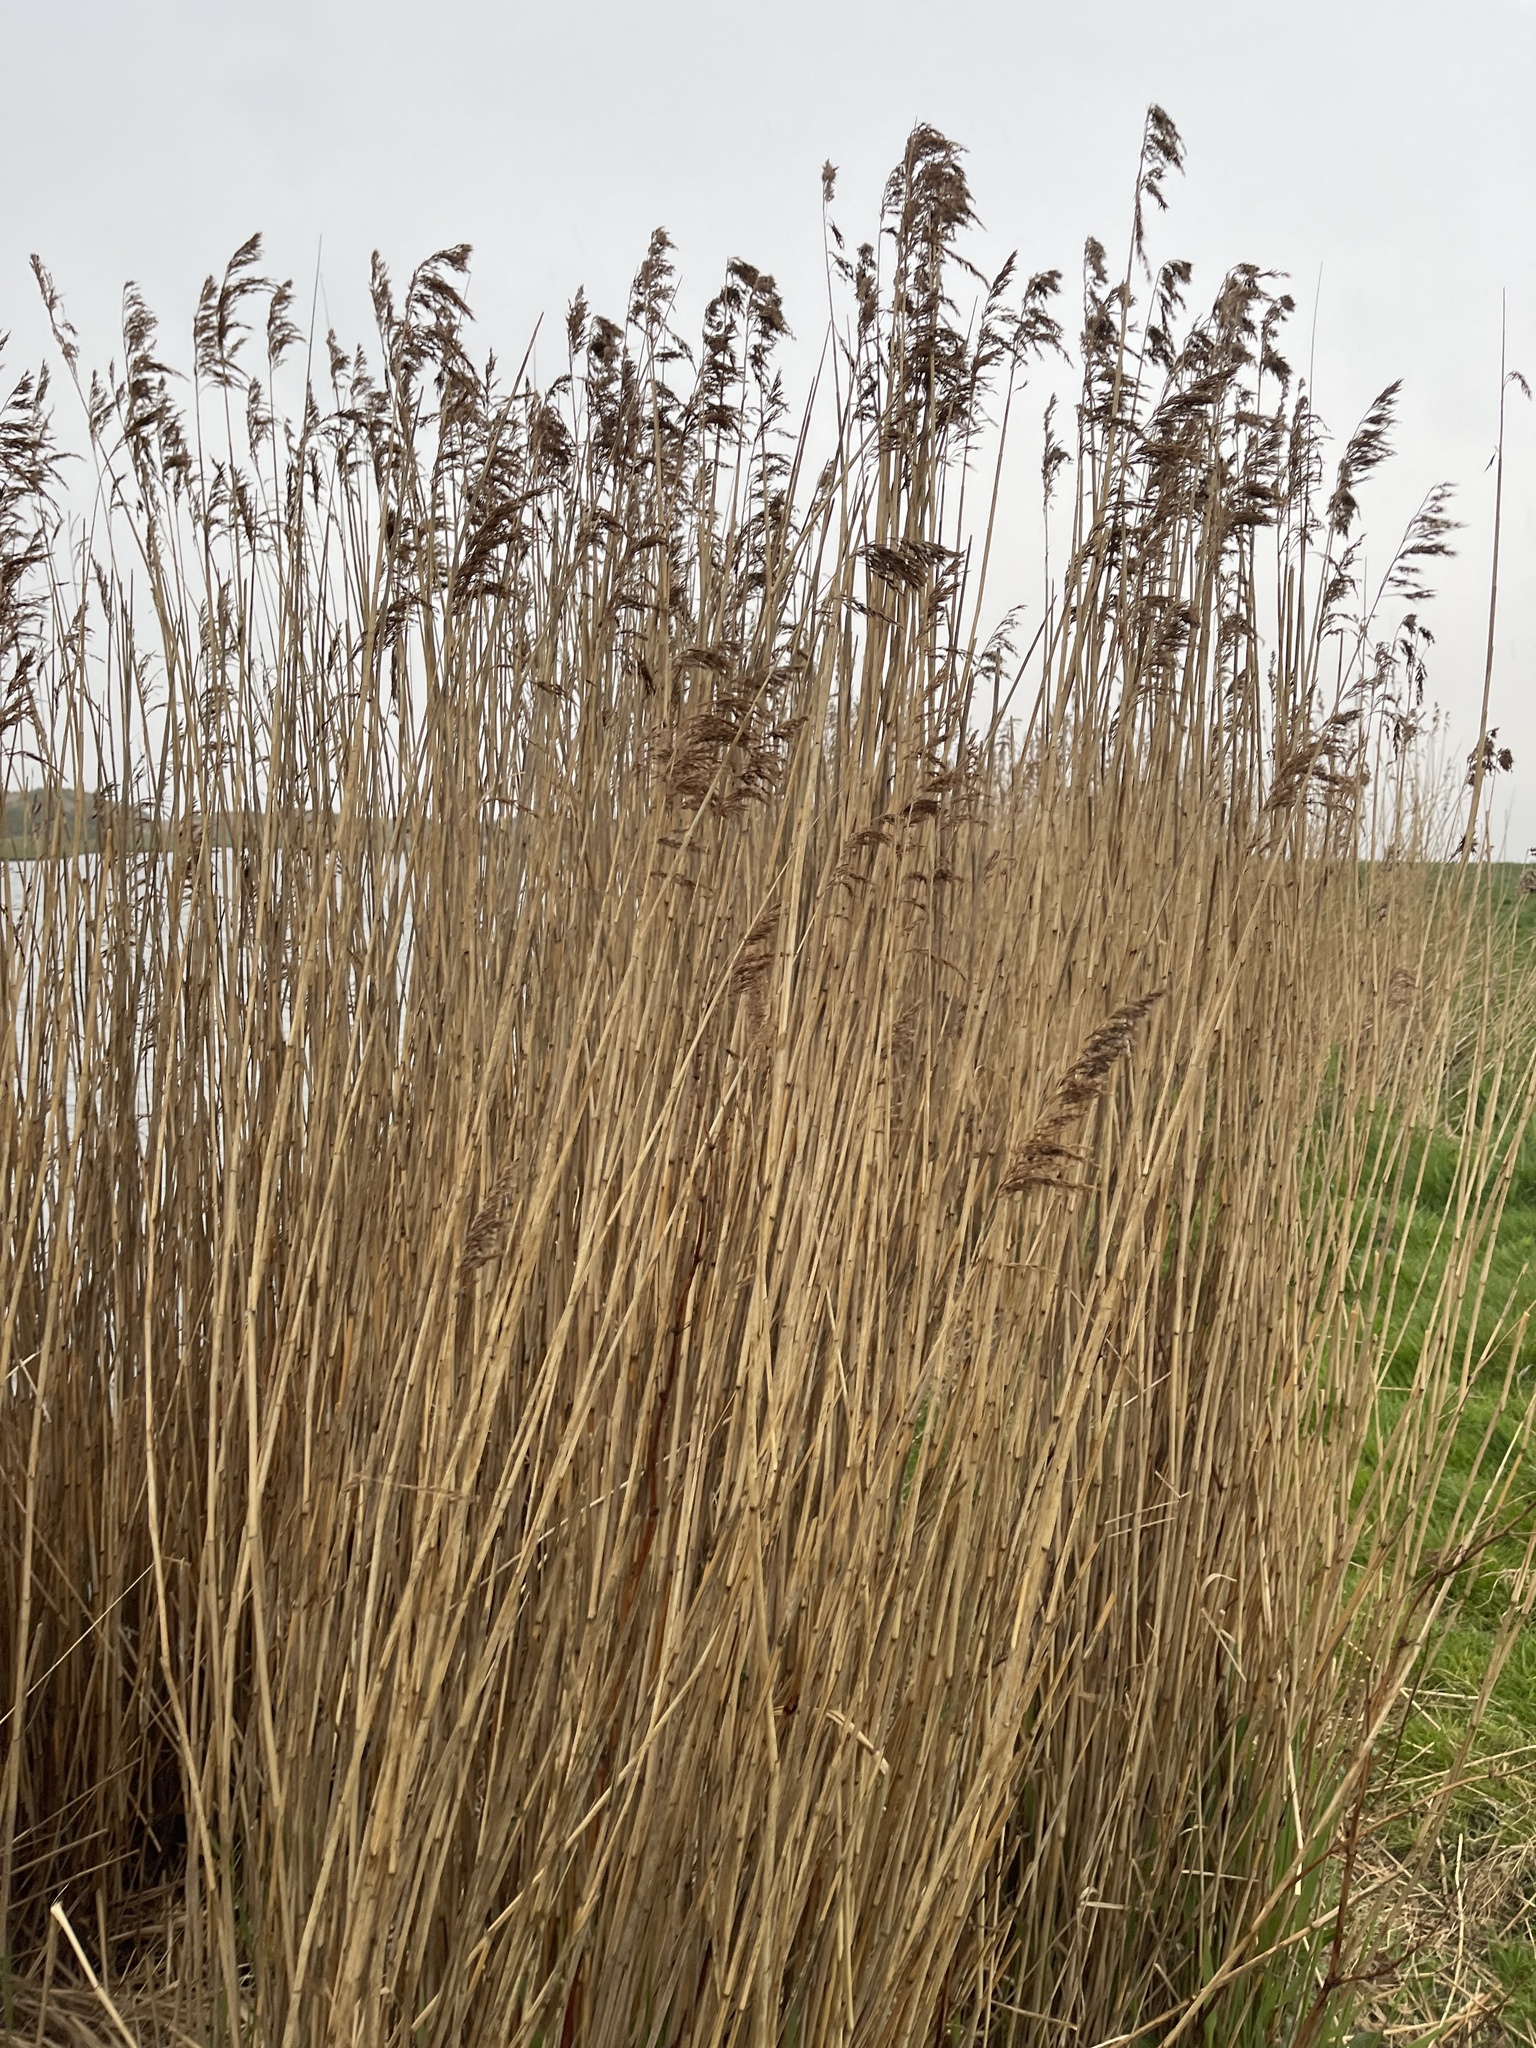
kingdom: Plantae
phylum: Tracheophyta
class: Liliopsida
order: Poales
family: Poaceae
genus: Phragmites
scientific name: Phragmites australis
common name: Common reed
